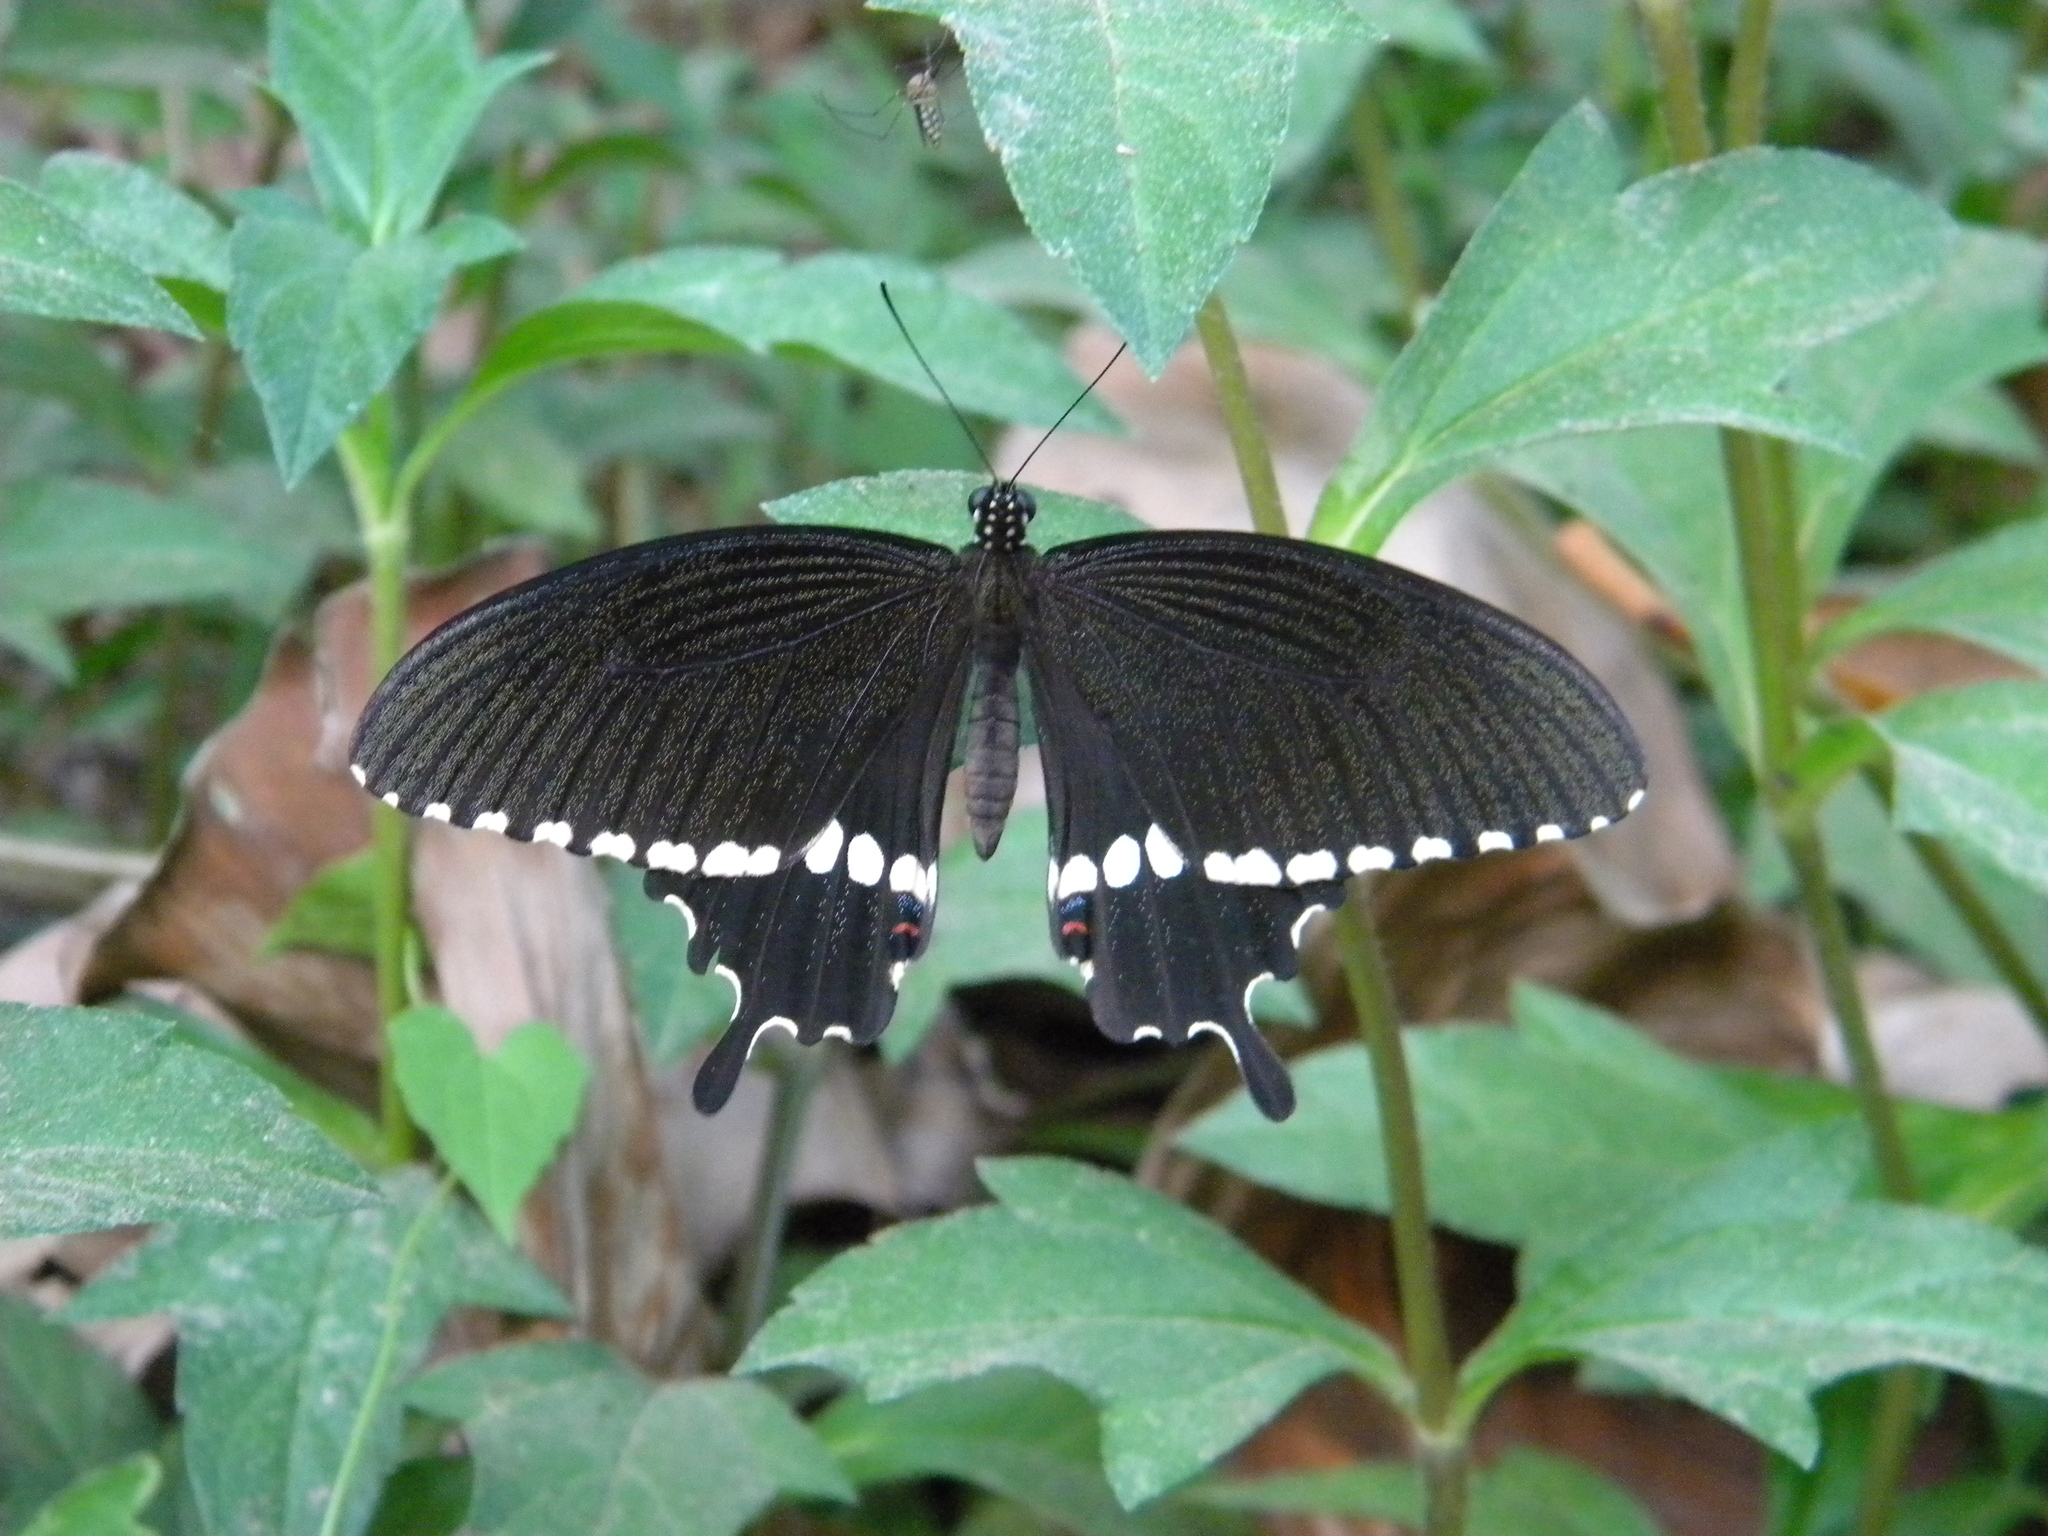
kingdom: Animalia
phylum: Arthropoda
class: Insecta
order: Lepidoptera
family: Papilionidae
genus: Papilio
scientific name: Papilio polytes
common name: Common mormon
